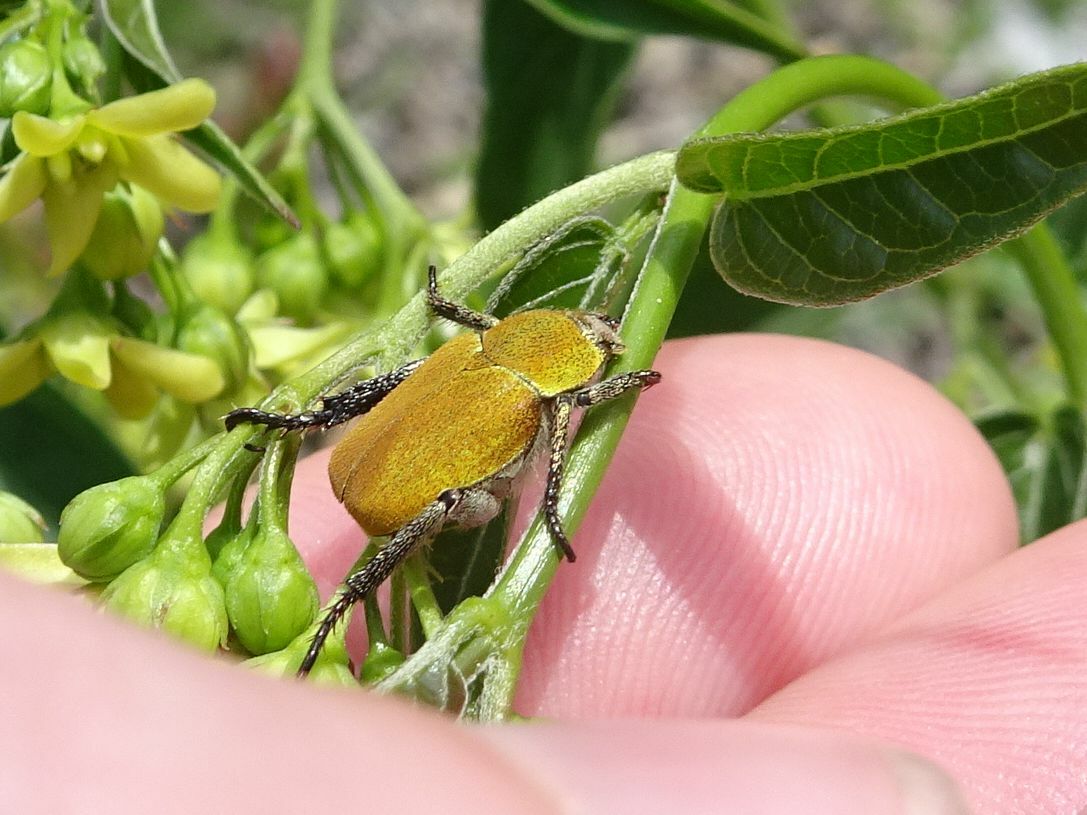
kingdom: Animalia
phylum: Arthropoda
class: Insecta
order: Coleoptera
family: Scarabaeidae
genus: Hoplia
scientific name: Hoplia argentea
